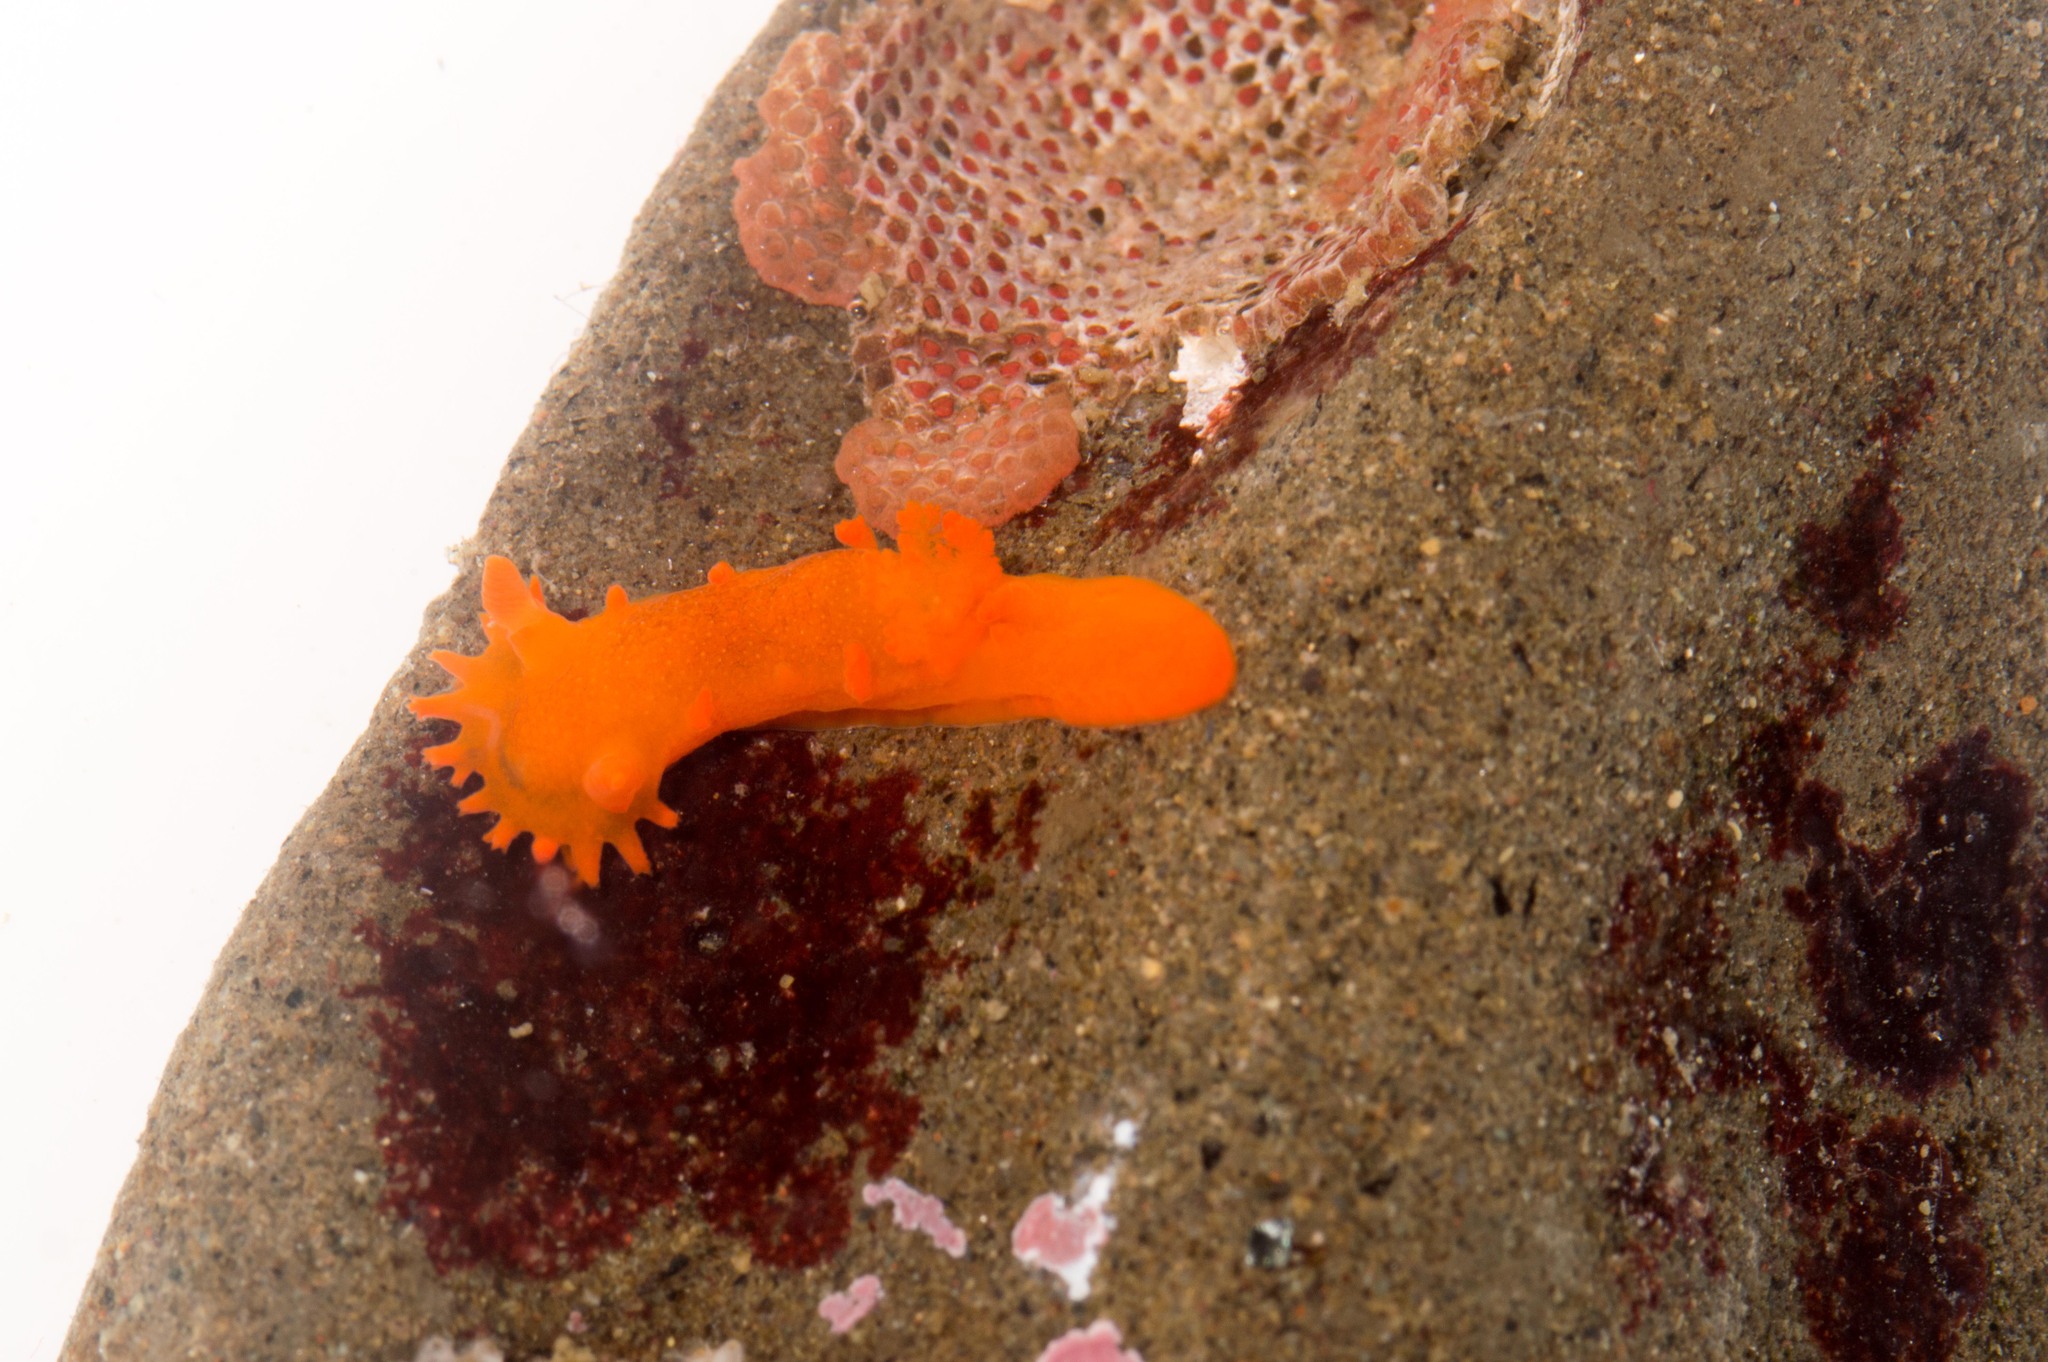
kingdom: Animalia
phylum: Mollusca
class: Gastropoda
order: Nudibranchia
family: Polyceridae
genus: Triopha
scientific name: Triopha maculata
